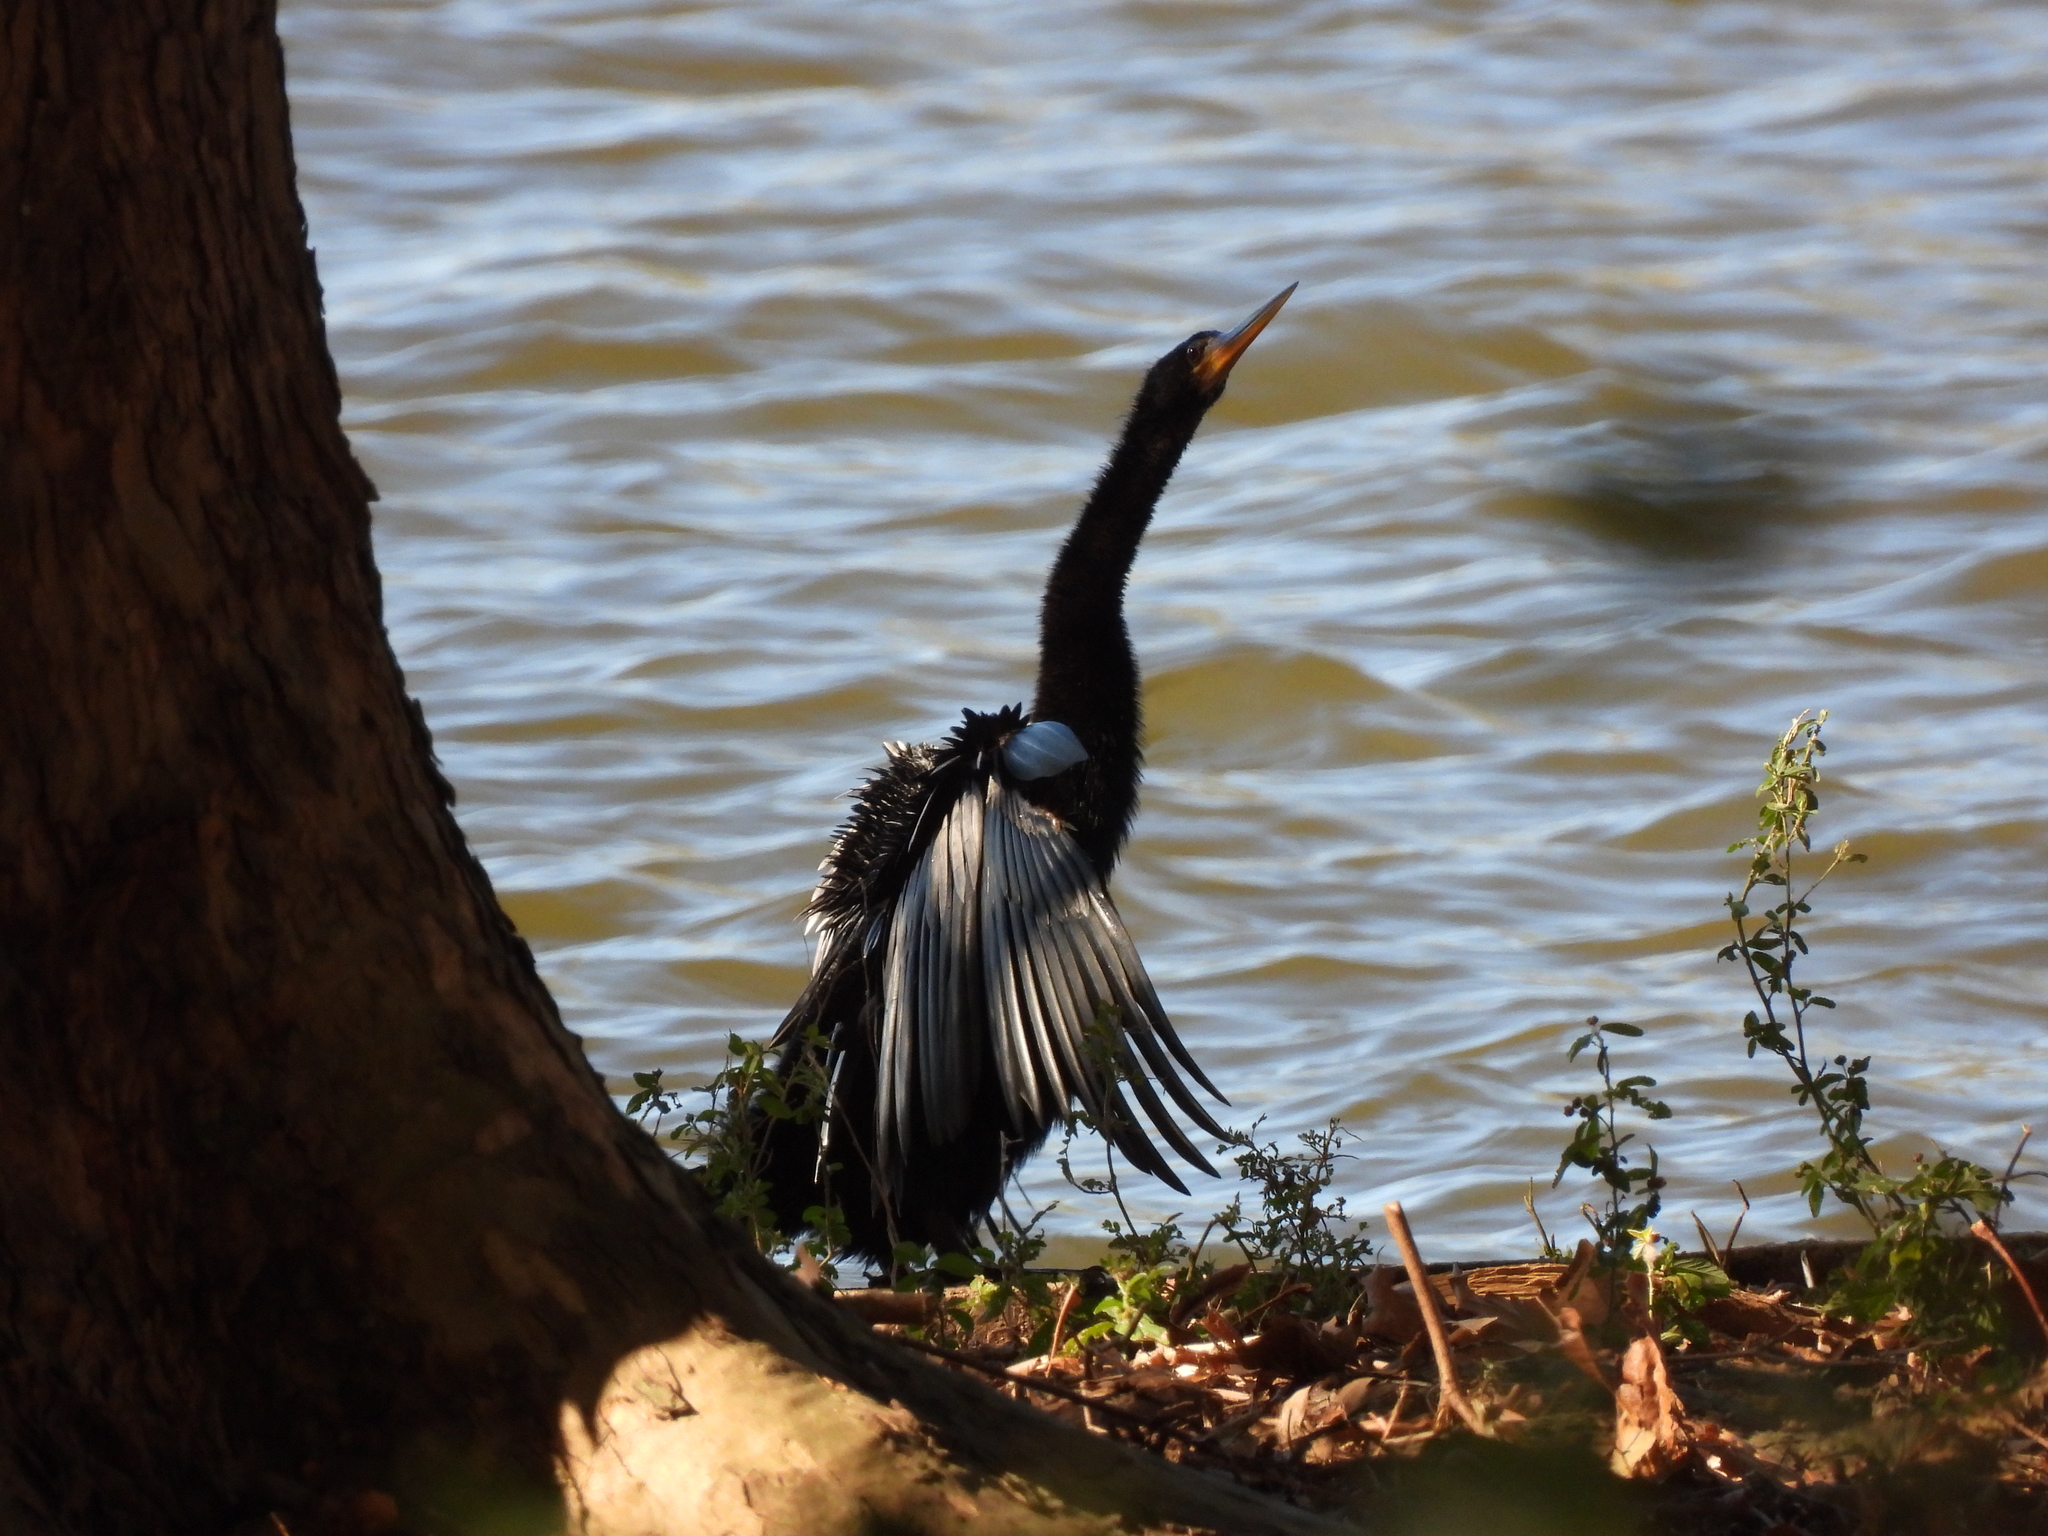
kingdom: Animalia
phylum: Chordata
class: Aves
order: Suliformes
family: Anhingidae
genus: Anhinga
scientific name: Anhinga anhinga
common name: Anhinga
